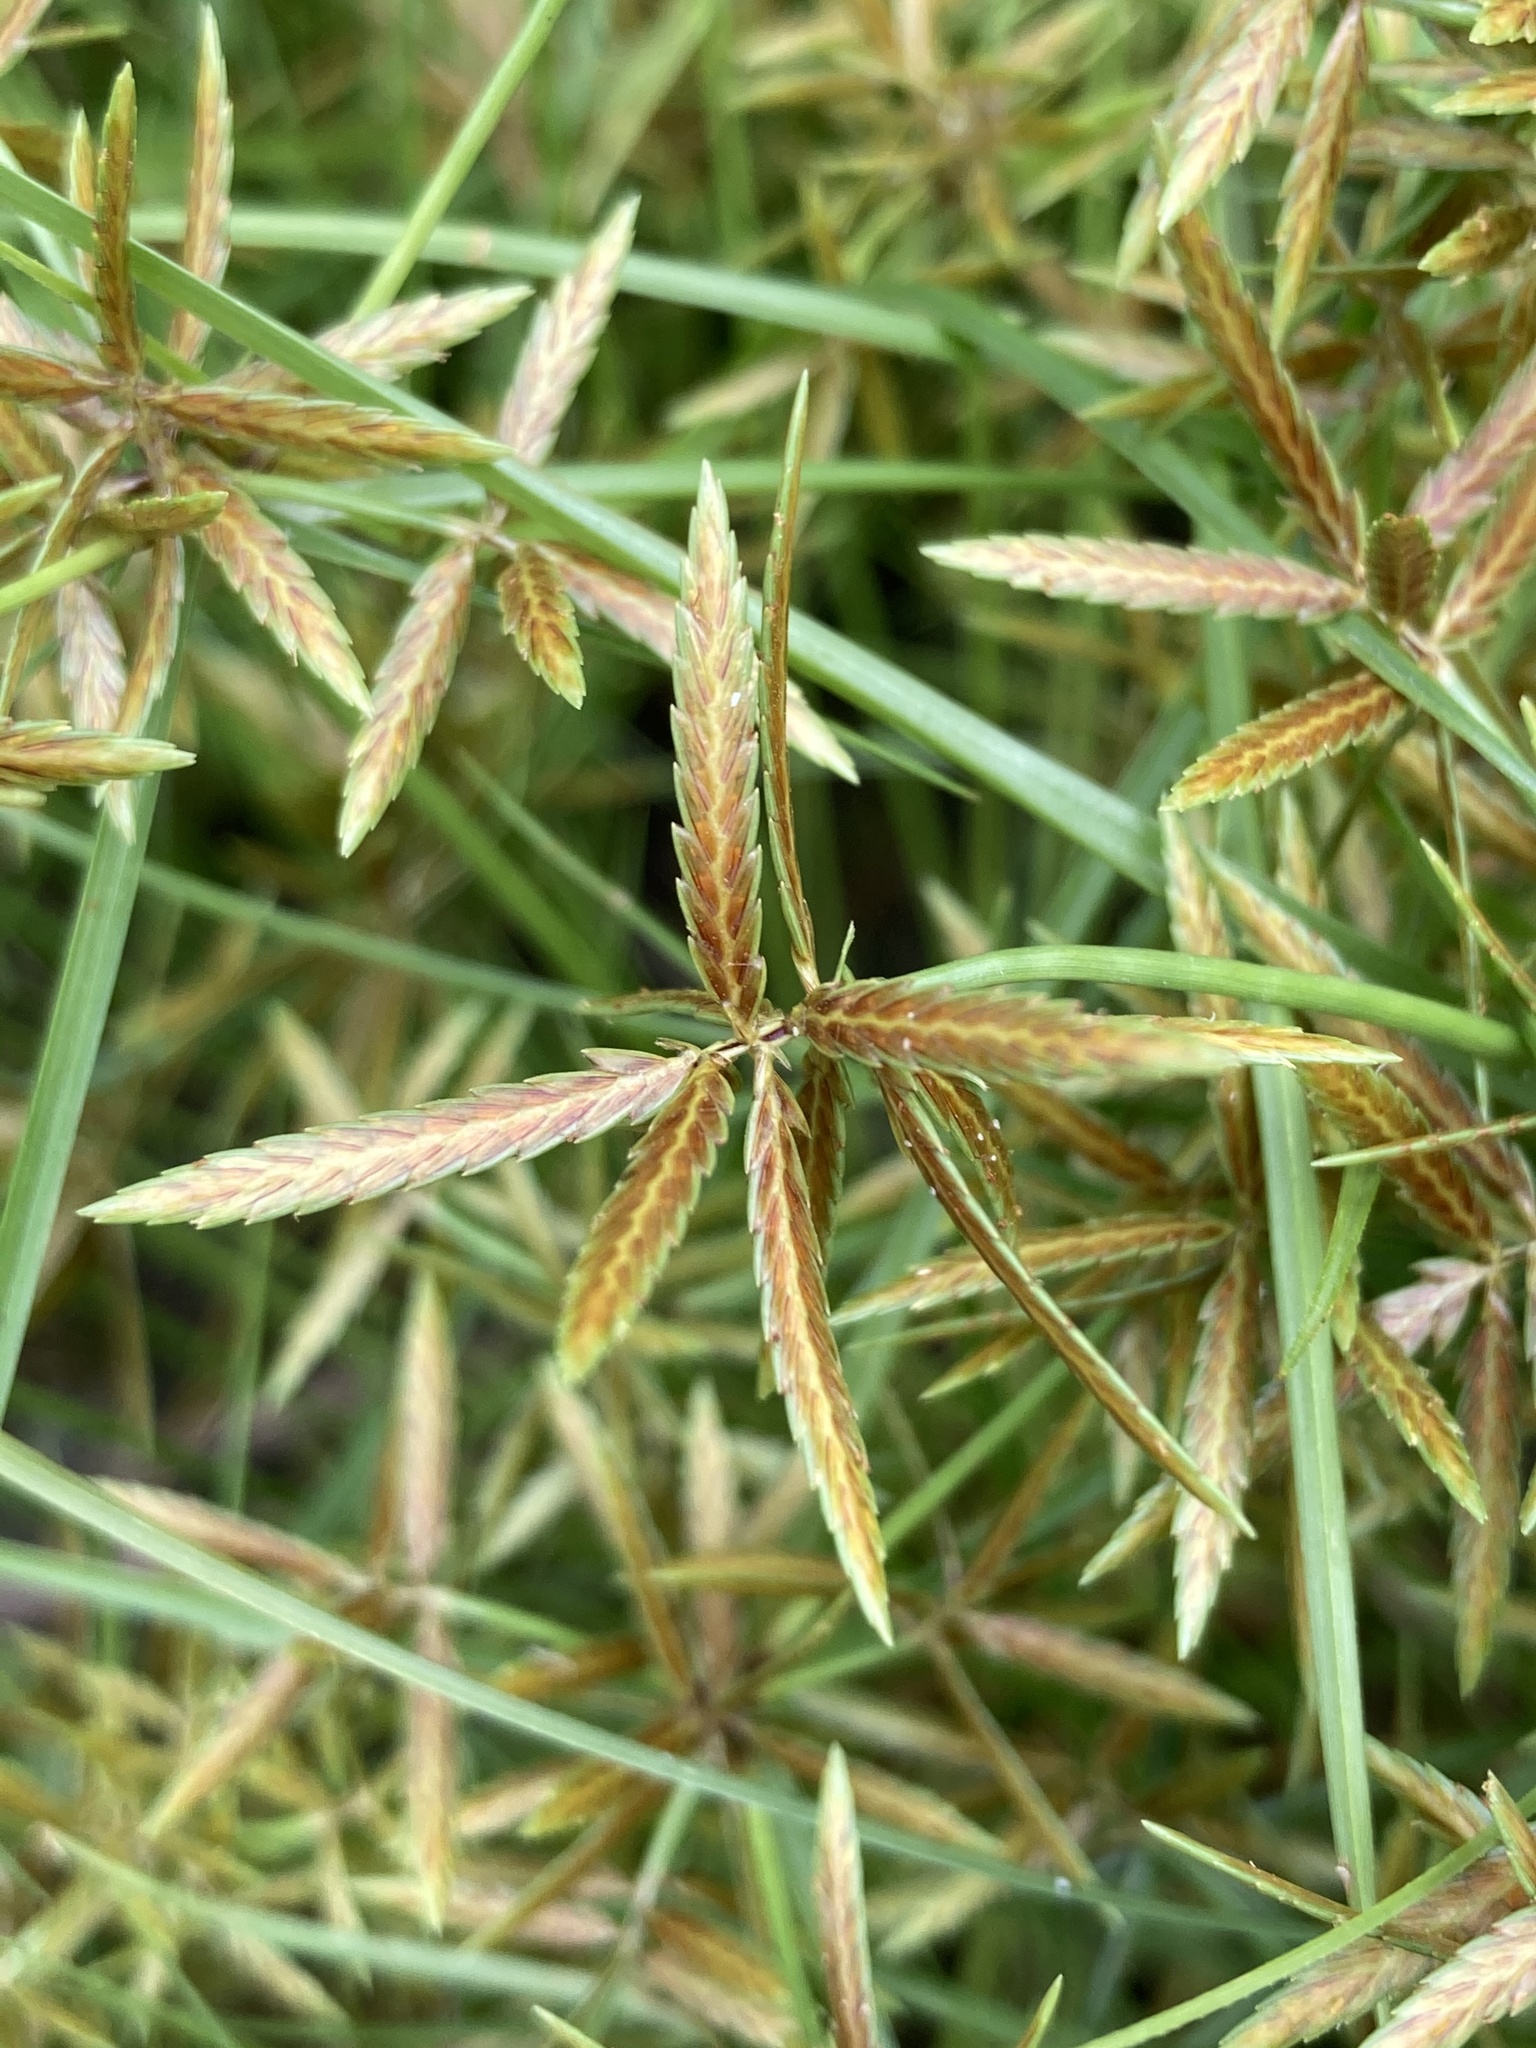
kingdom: Plantae
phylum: Tracheophyta
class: Liliopsida
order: Poales
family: Cyperaceae
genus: Cyperus
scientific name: Cyperus filicinus
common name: Fern flatsedge
